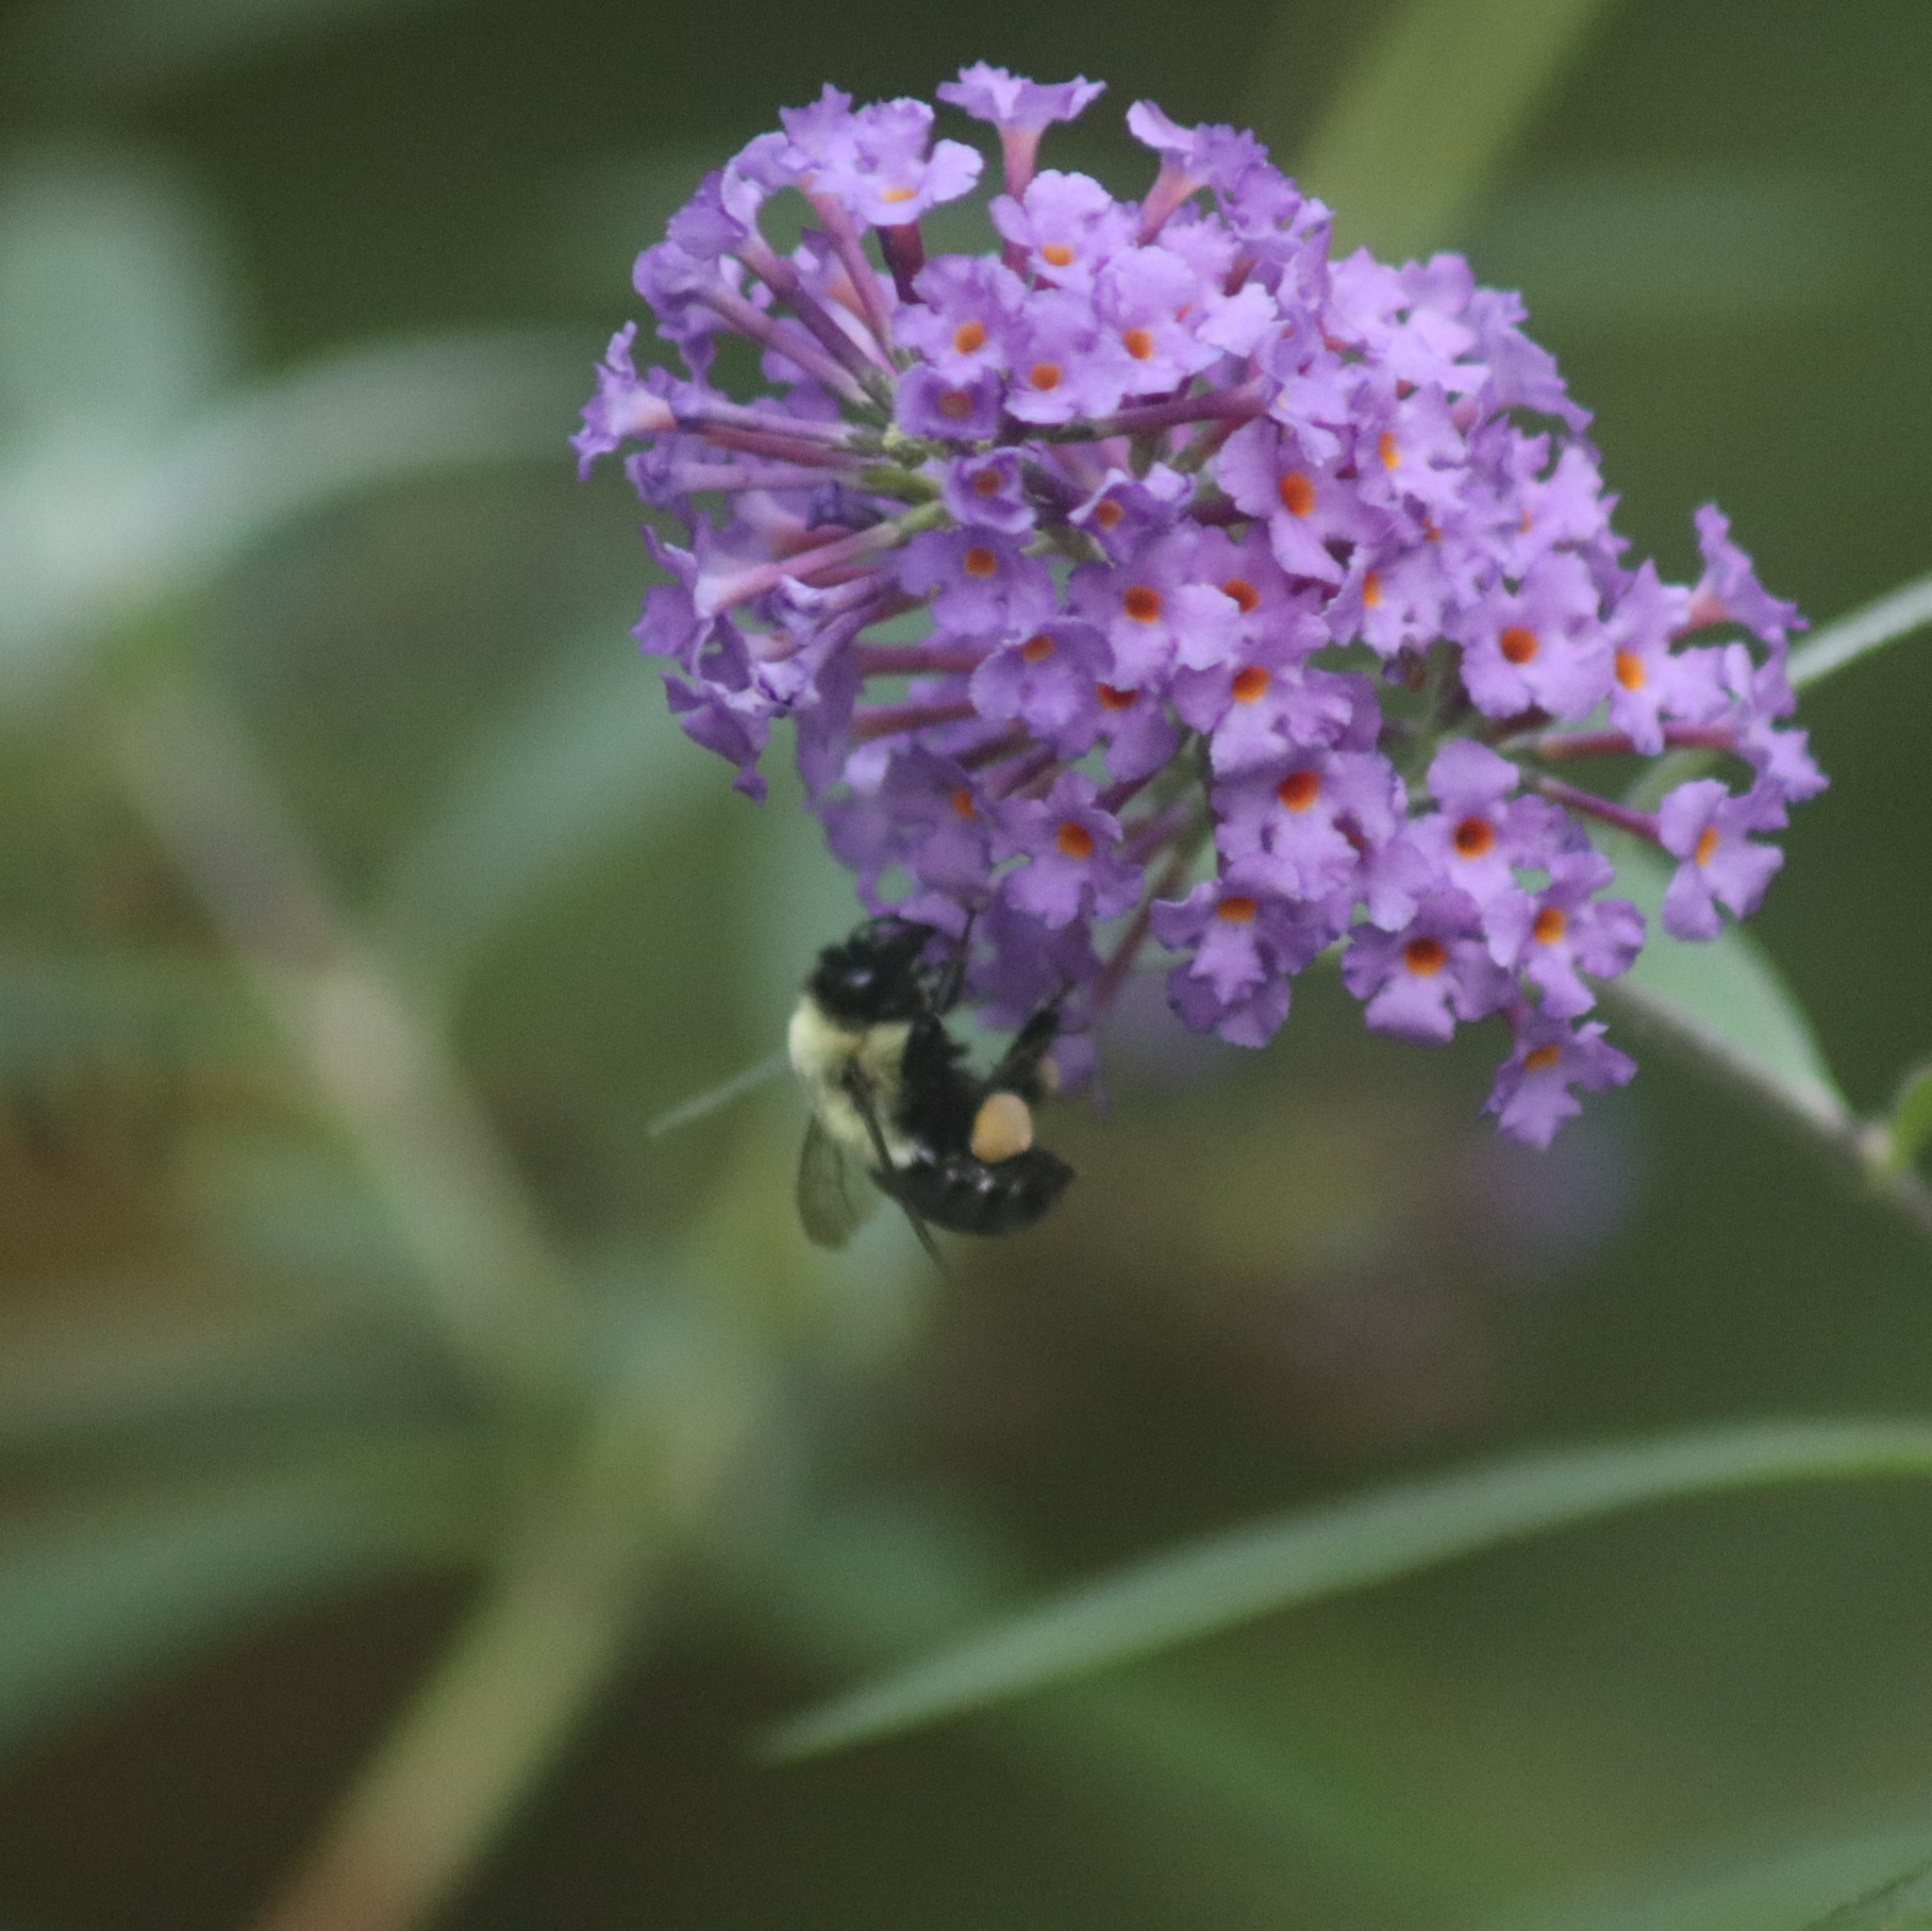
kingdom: Animalia
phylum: Arthropoda
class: Insecta
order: Hymenoptera
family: Apidae
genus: Bombus
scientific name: Bombus impatiens
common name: Common eastern bumble bee
